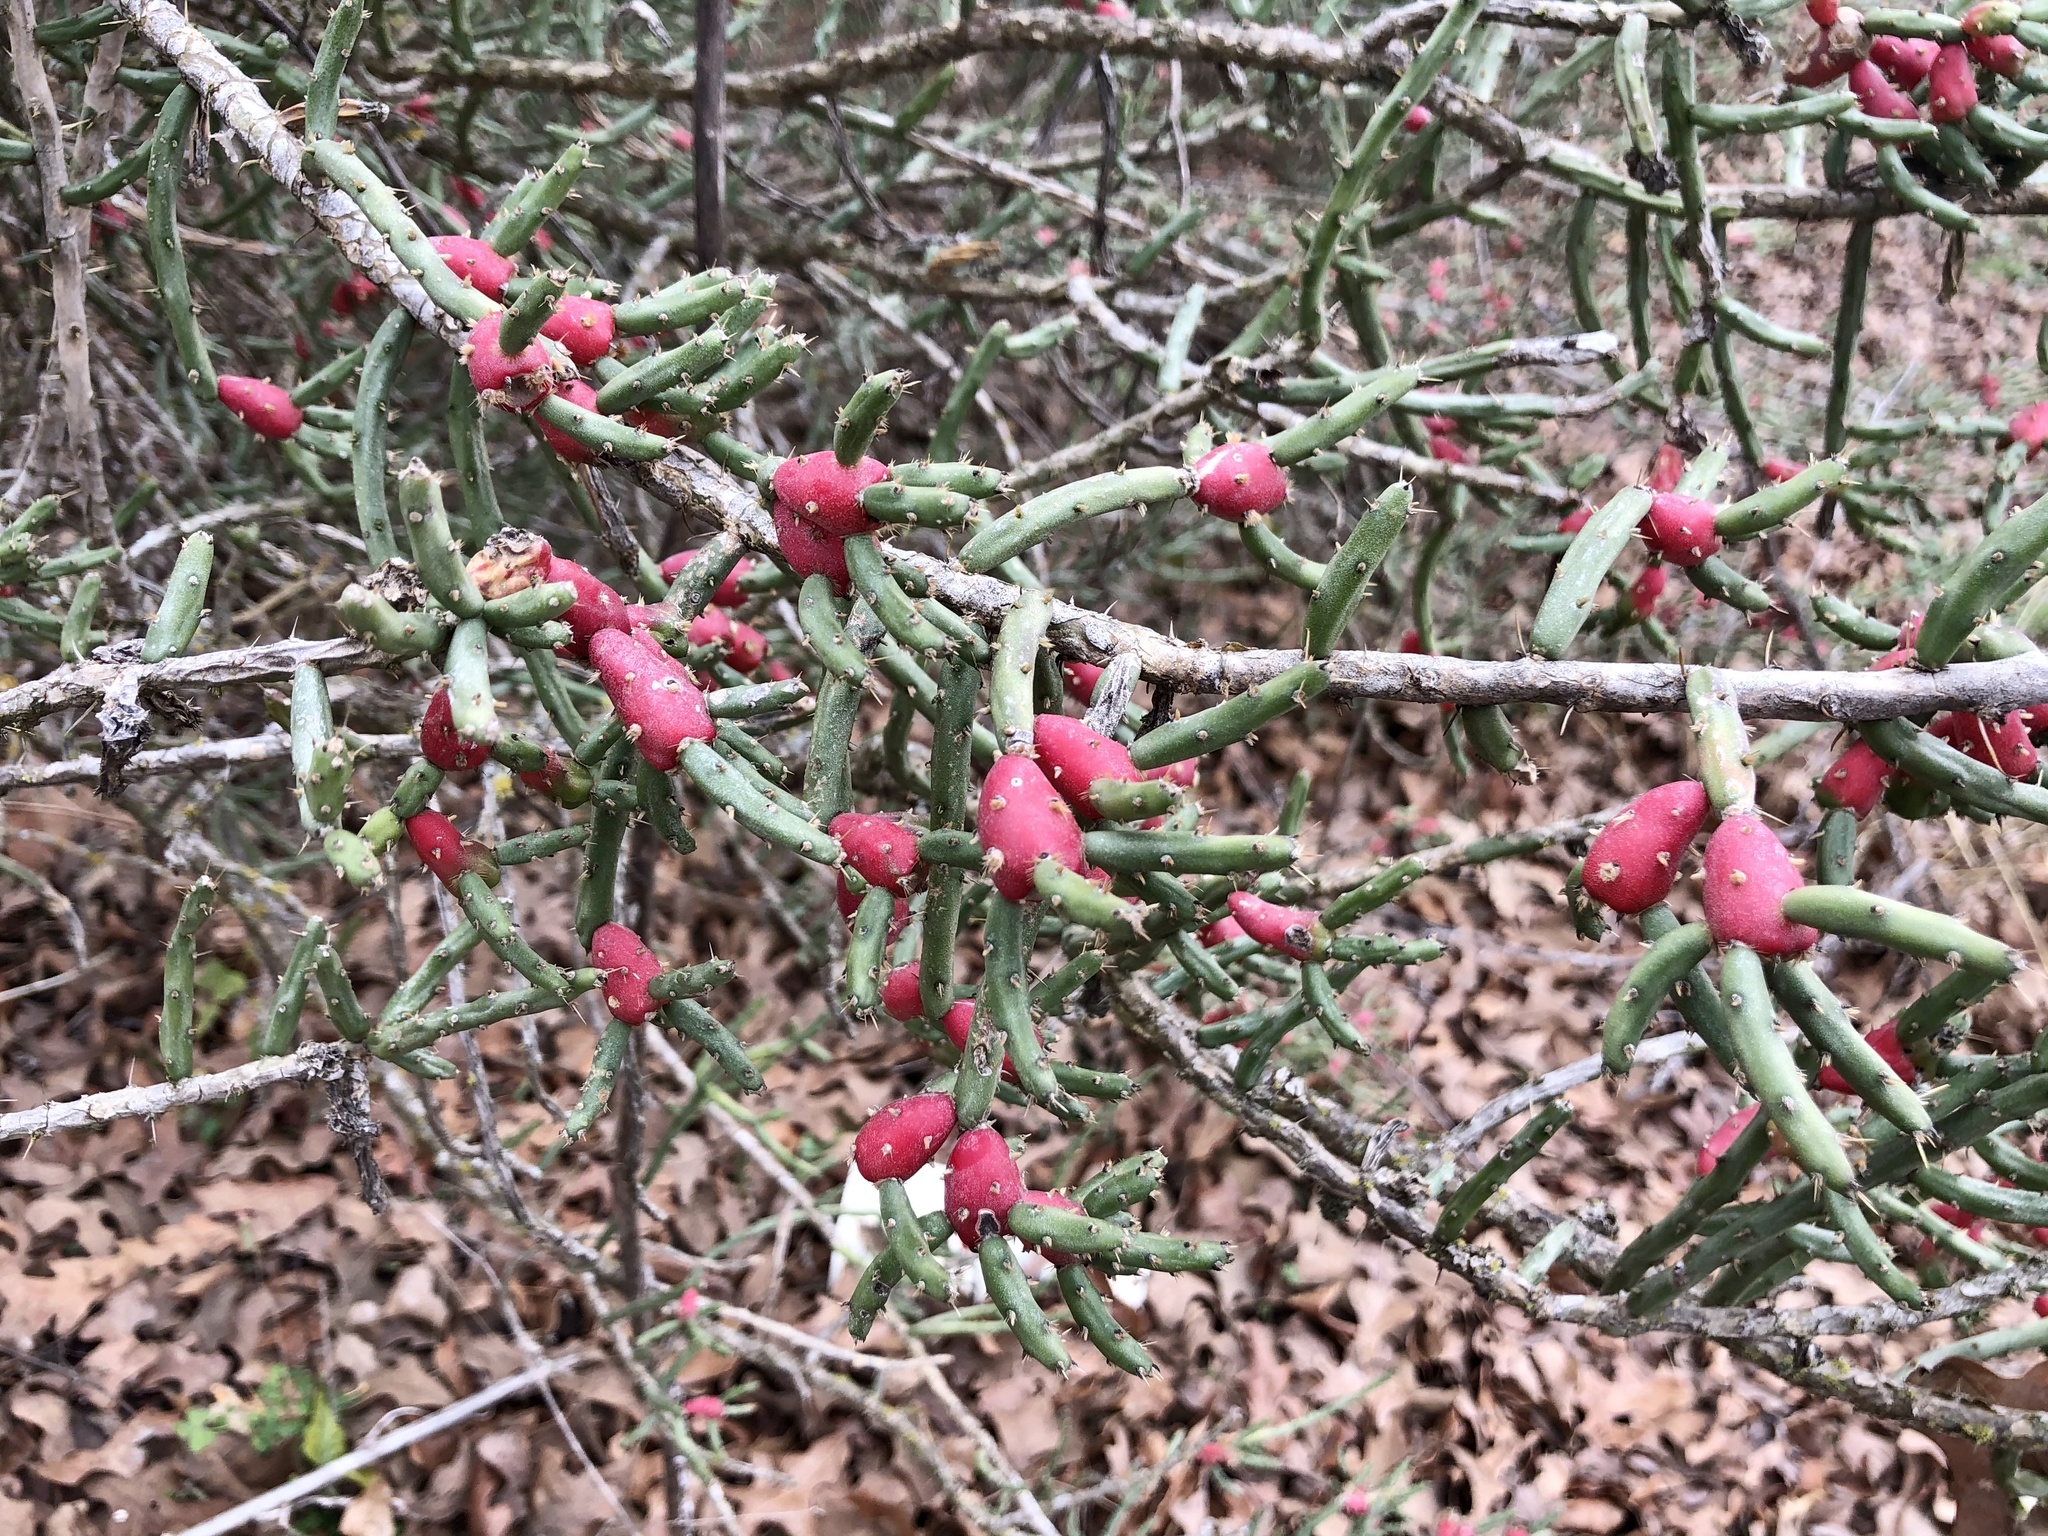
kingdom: Plantae
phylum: Tracheophyta
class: Magnoliopsida
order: Caryophyllales
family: Cactaceae
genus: Cylindropuntia
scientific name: Cylindropuntia leptocaulis
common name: Christmas cactus
